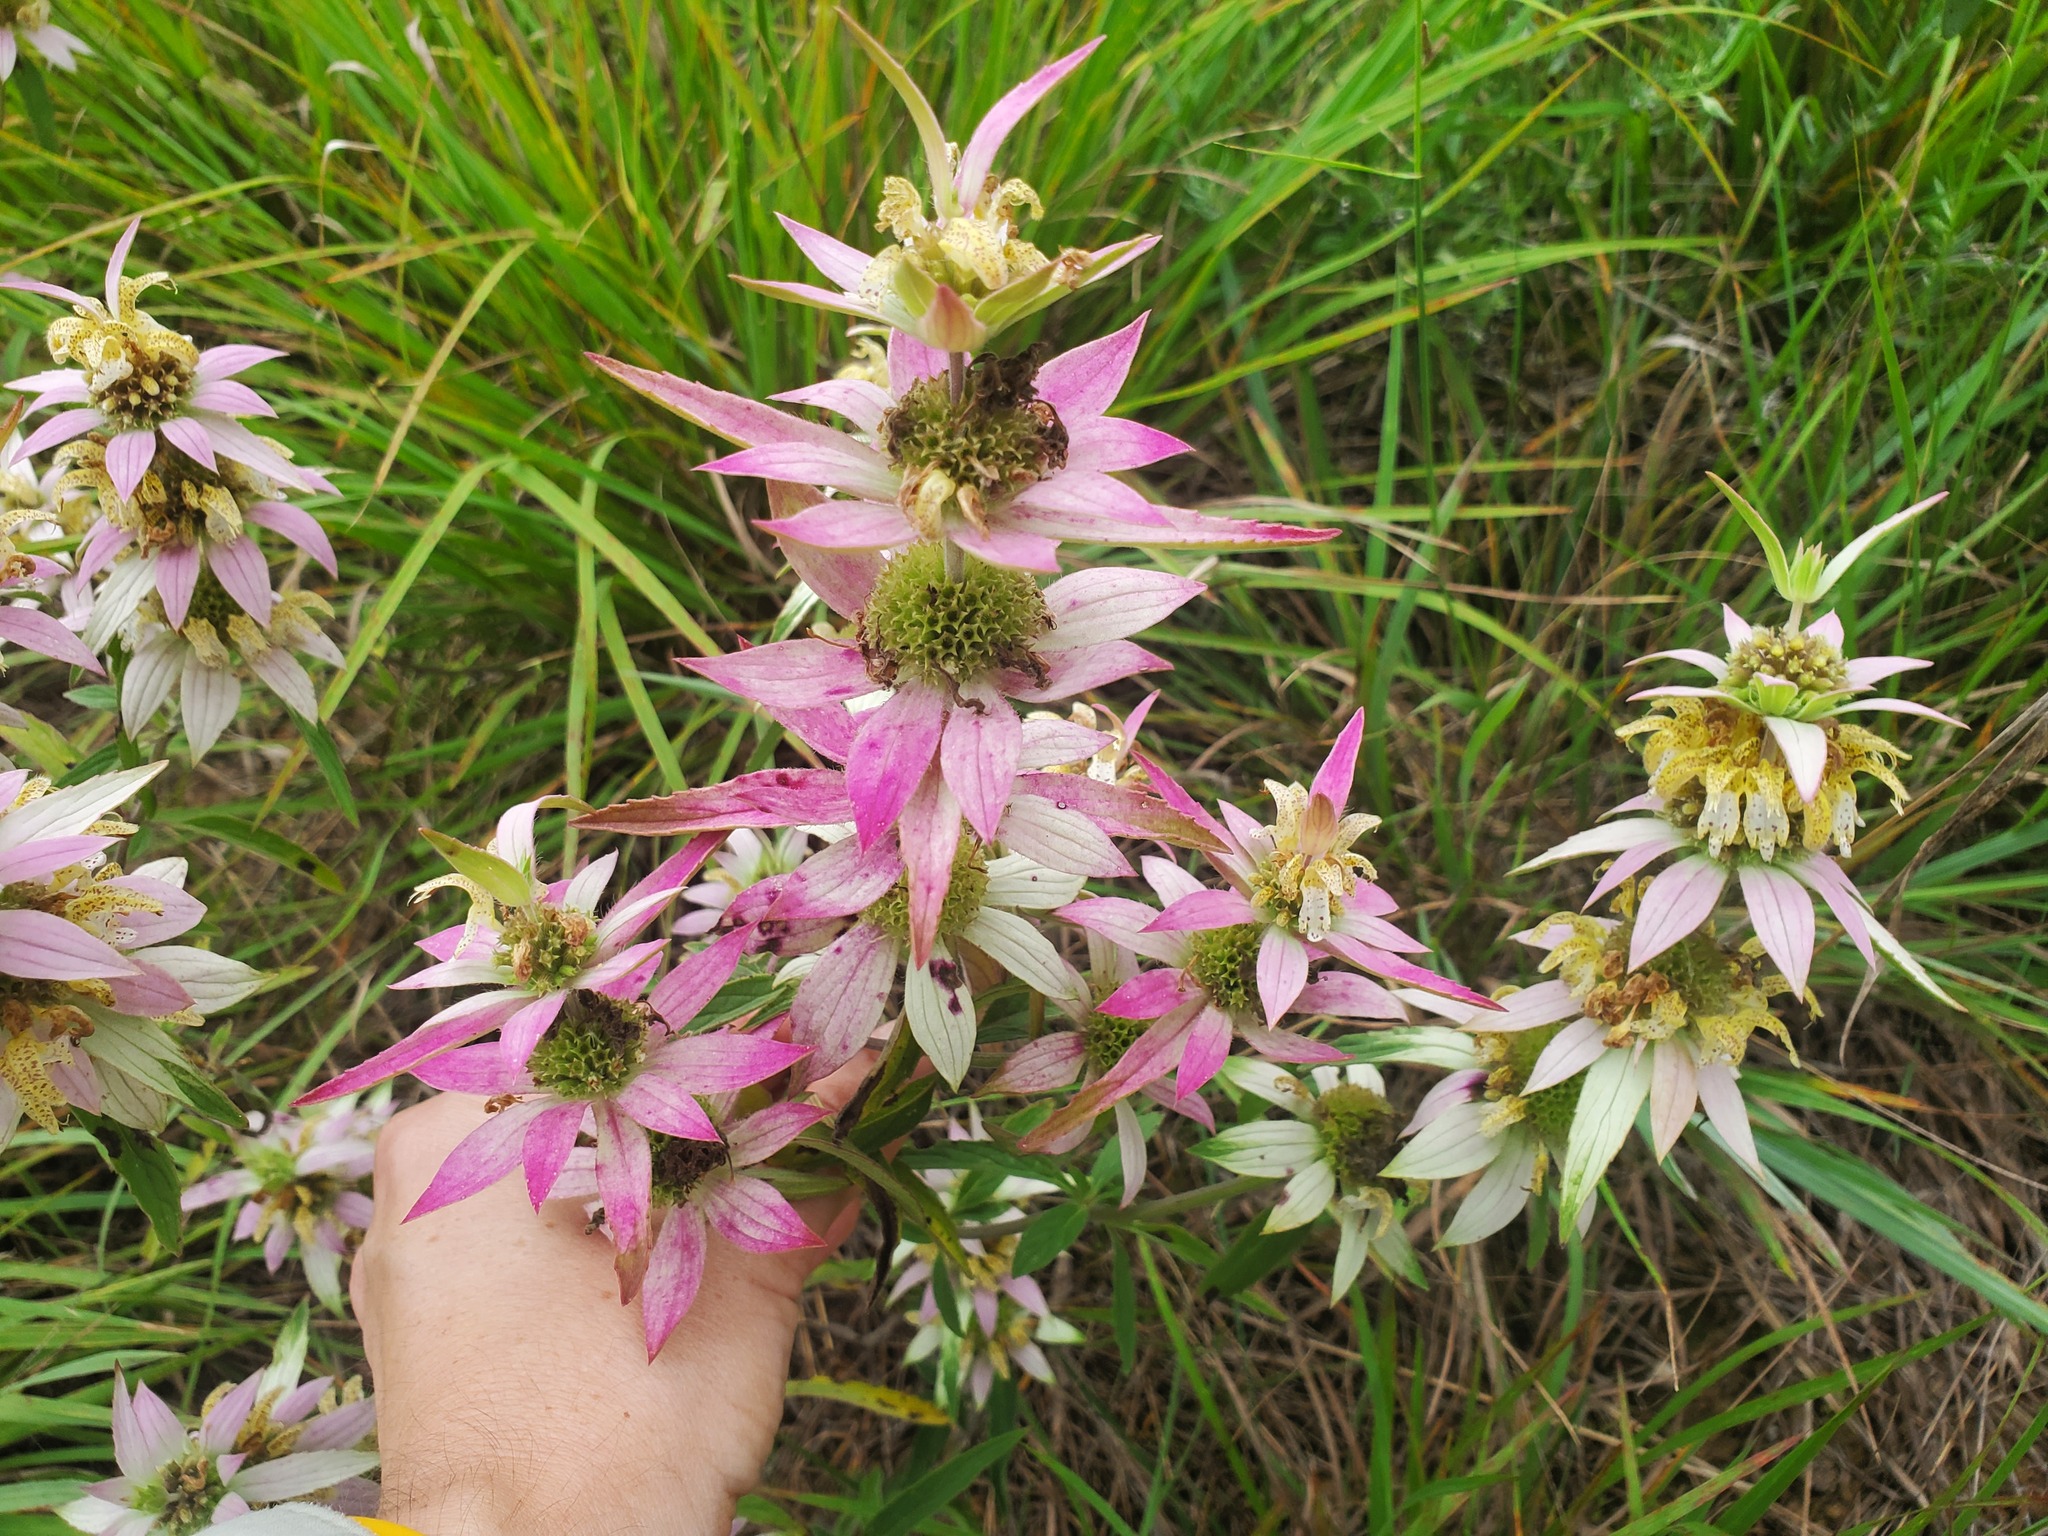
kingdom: Plantae
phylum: Tracheophyta
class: Magnoliopsida
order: Lamiales
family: Lamiaceae
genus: Monarda
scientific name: Monarda punctata
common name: Dotted monarda
